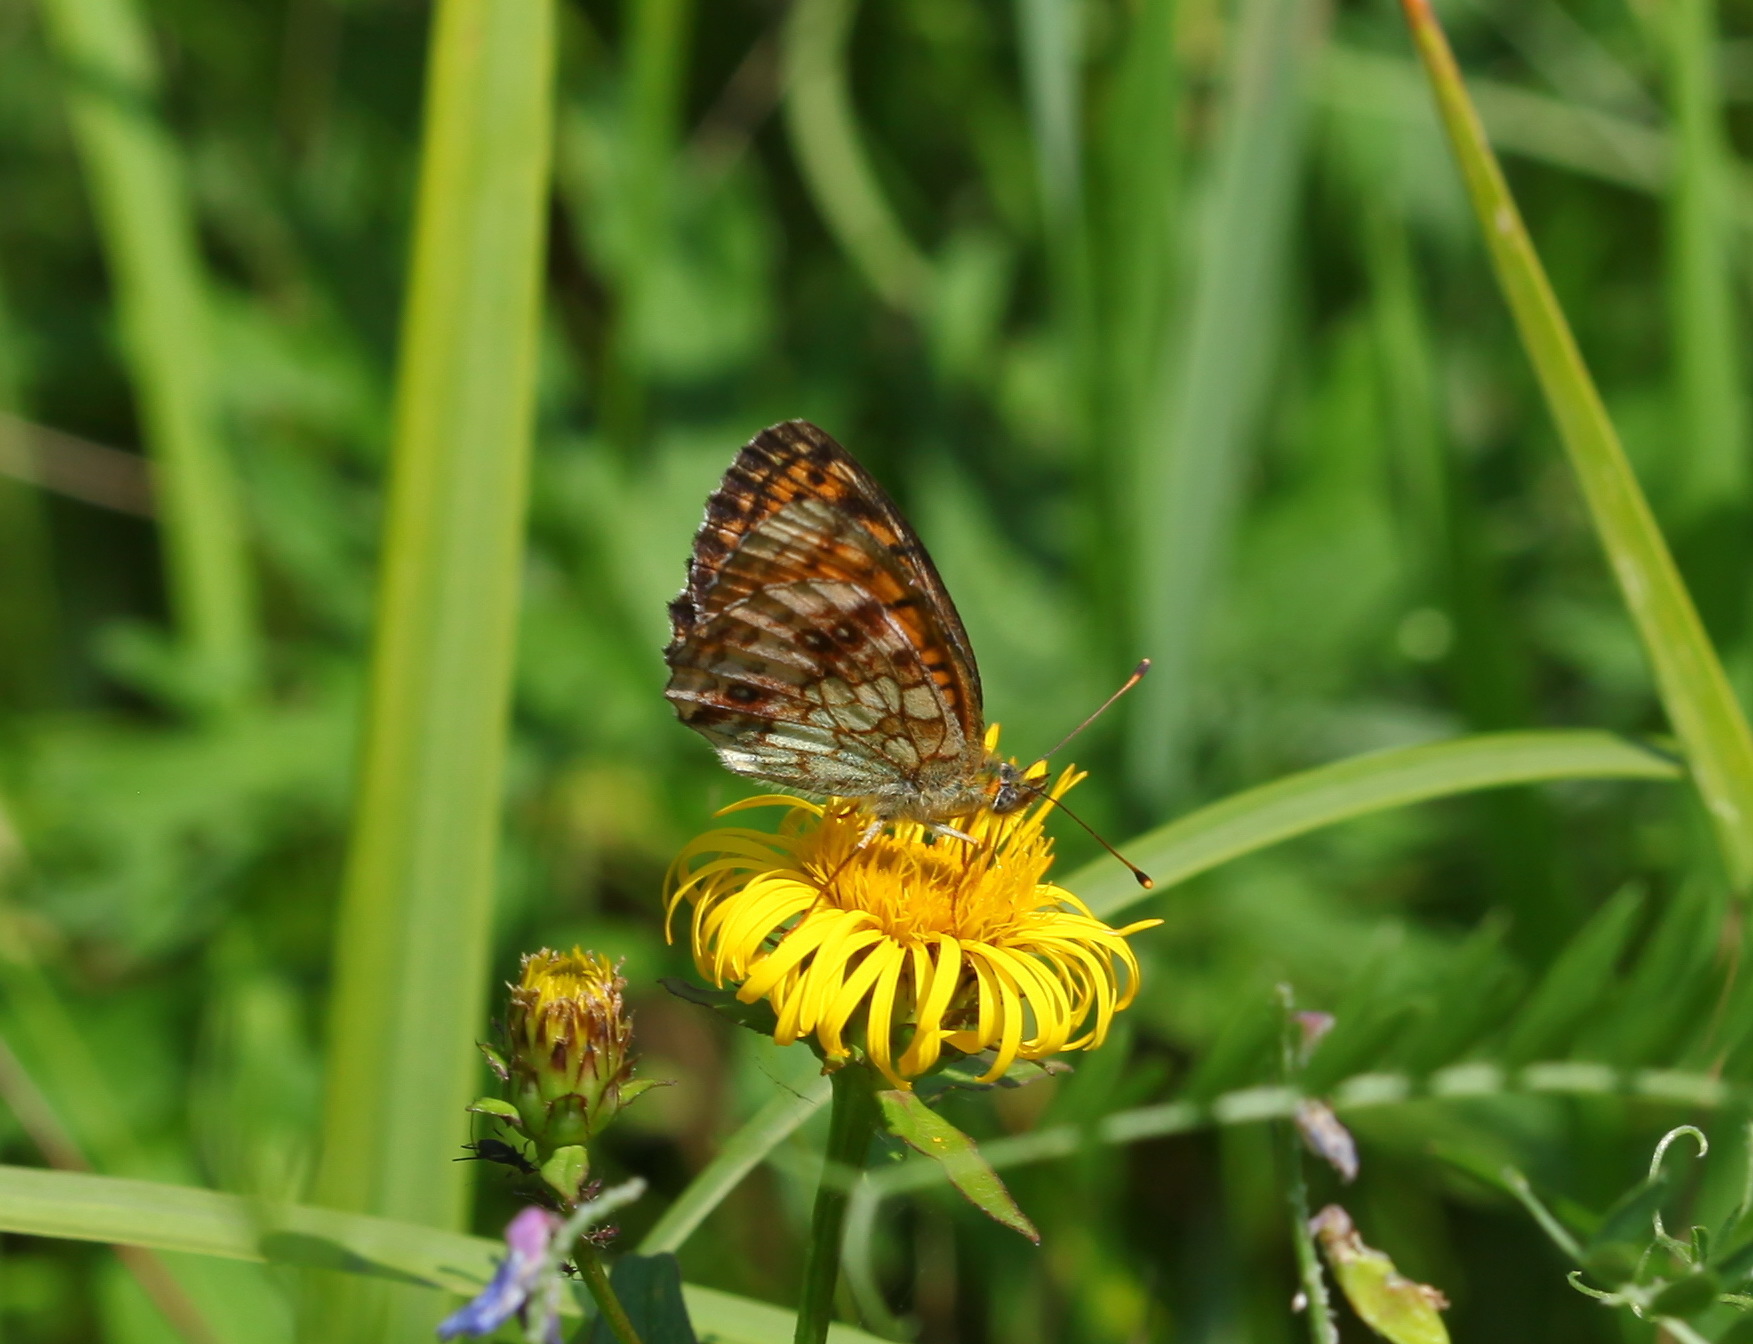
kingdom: Animalia
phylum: Arthropoda
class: Insecta
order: Lepidoptera
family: Nymphalidae
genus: Brenthis
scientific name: Brenthis ino
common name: Lesser marbled fritillary
